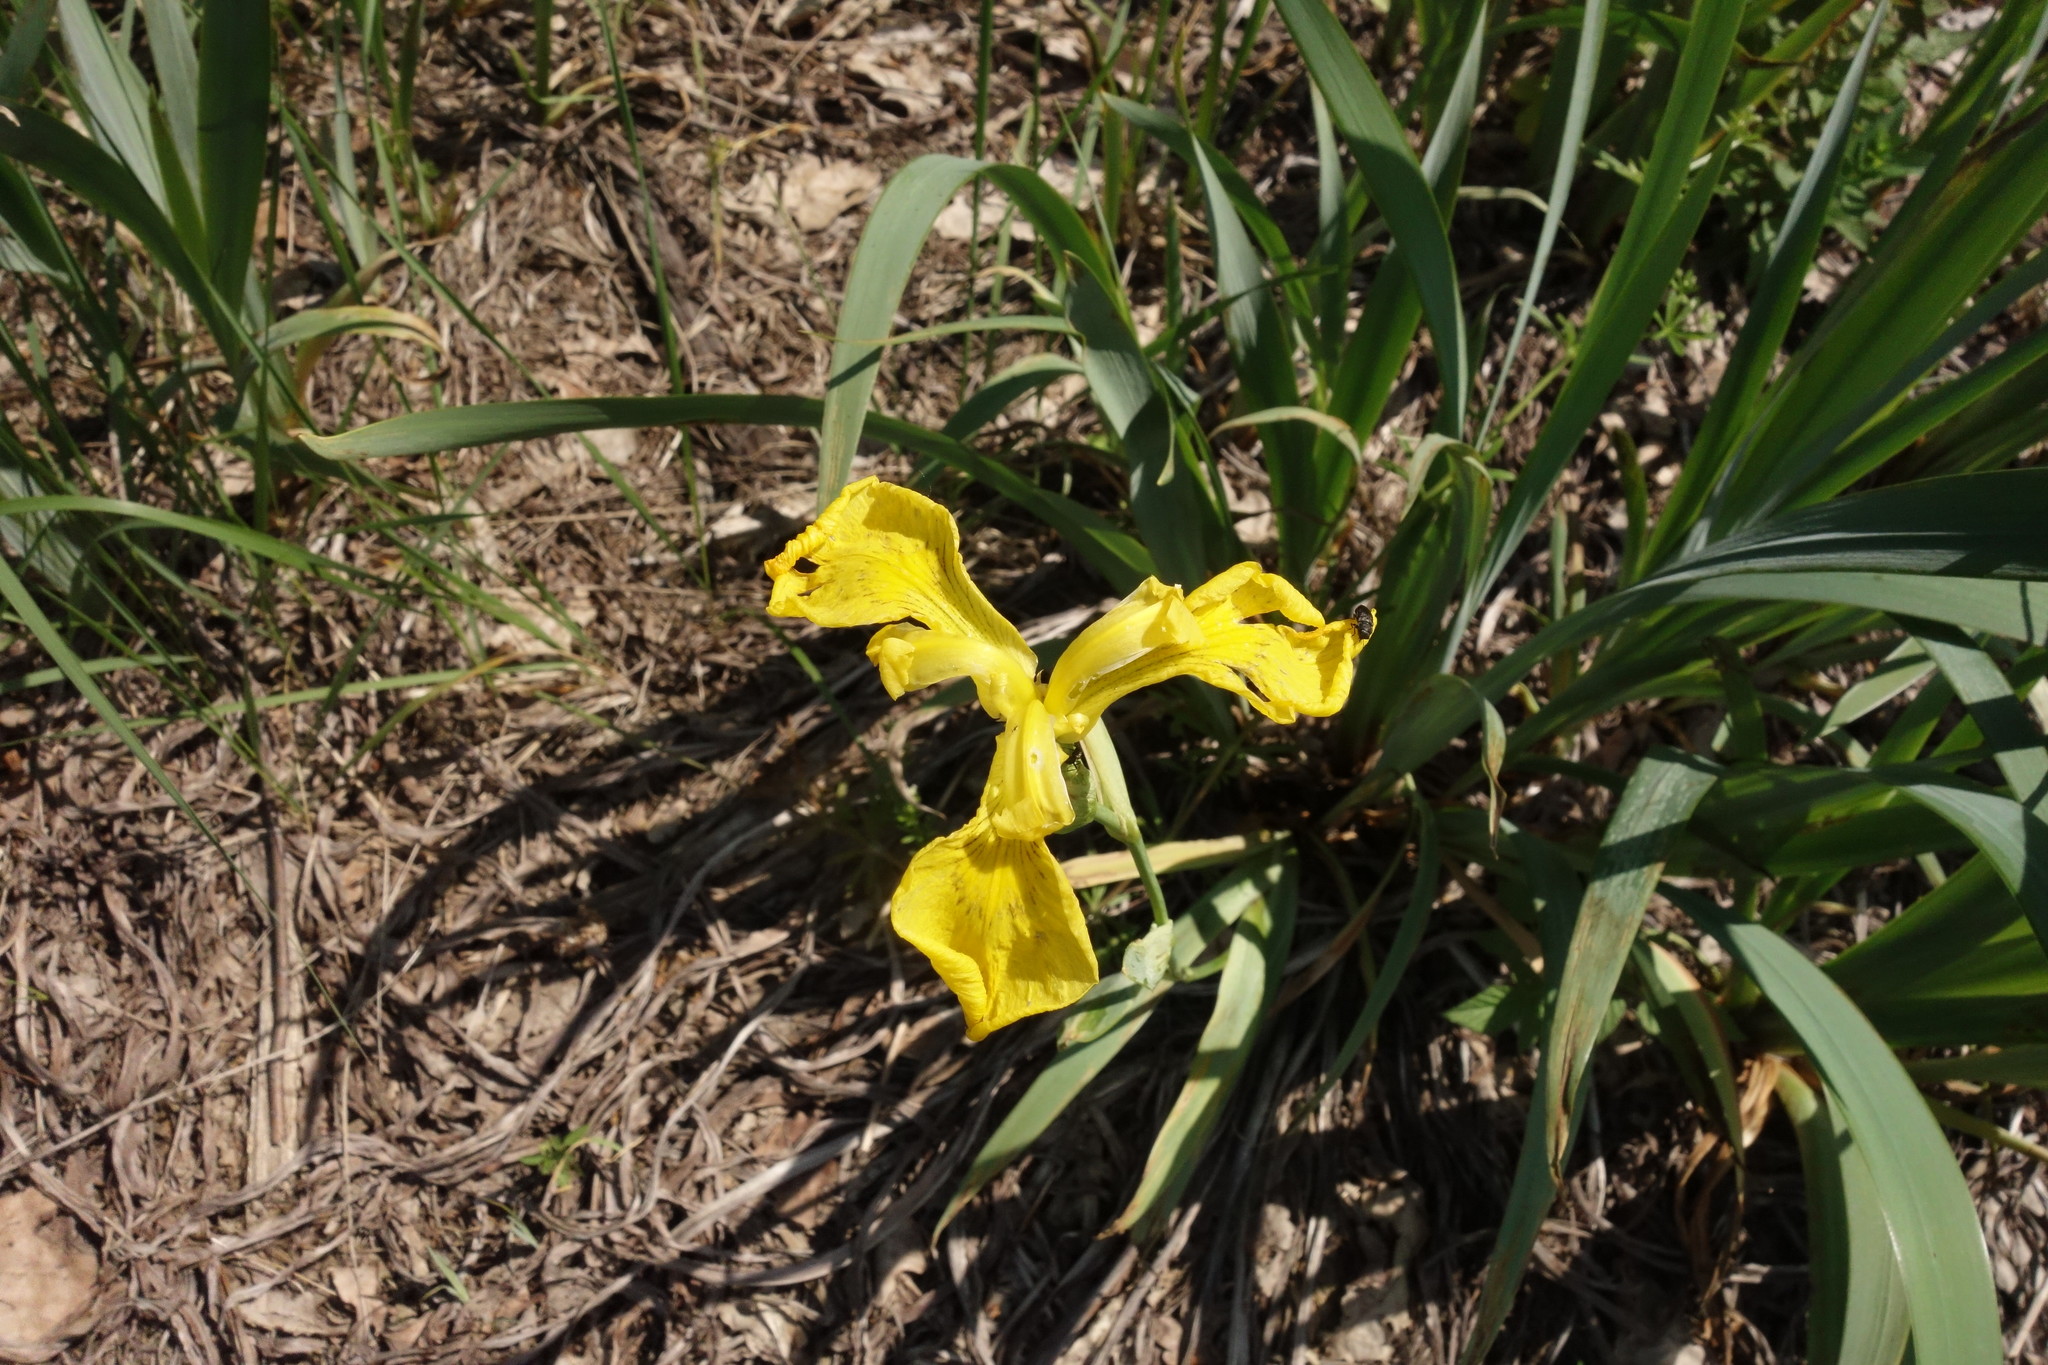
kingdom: Plantae
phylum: Tracheophyta
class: Liliopsida
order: Asparagales
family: Iridaceae
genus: Iris
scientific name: Iris pseudacorus
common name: Yellow flag
